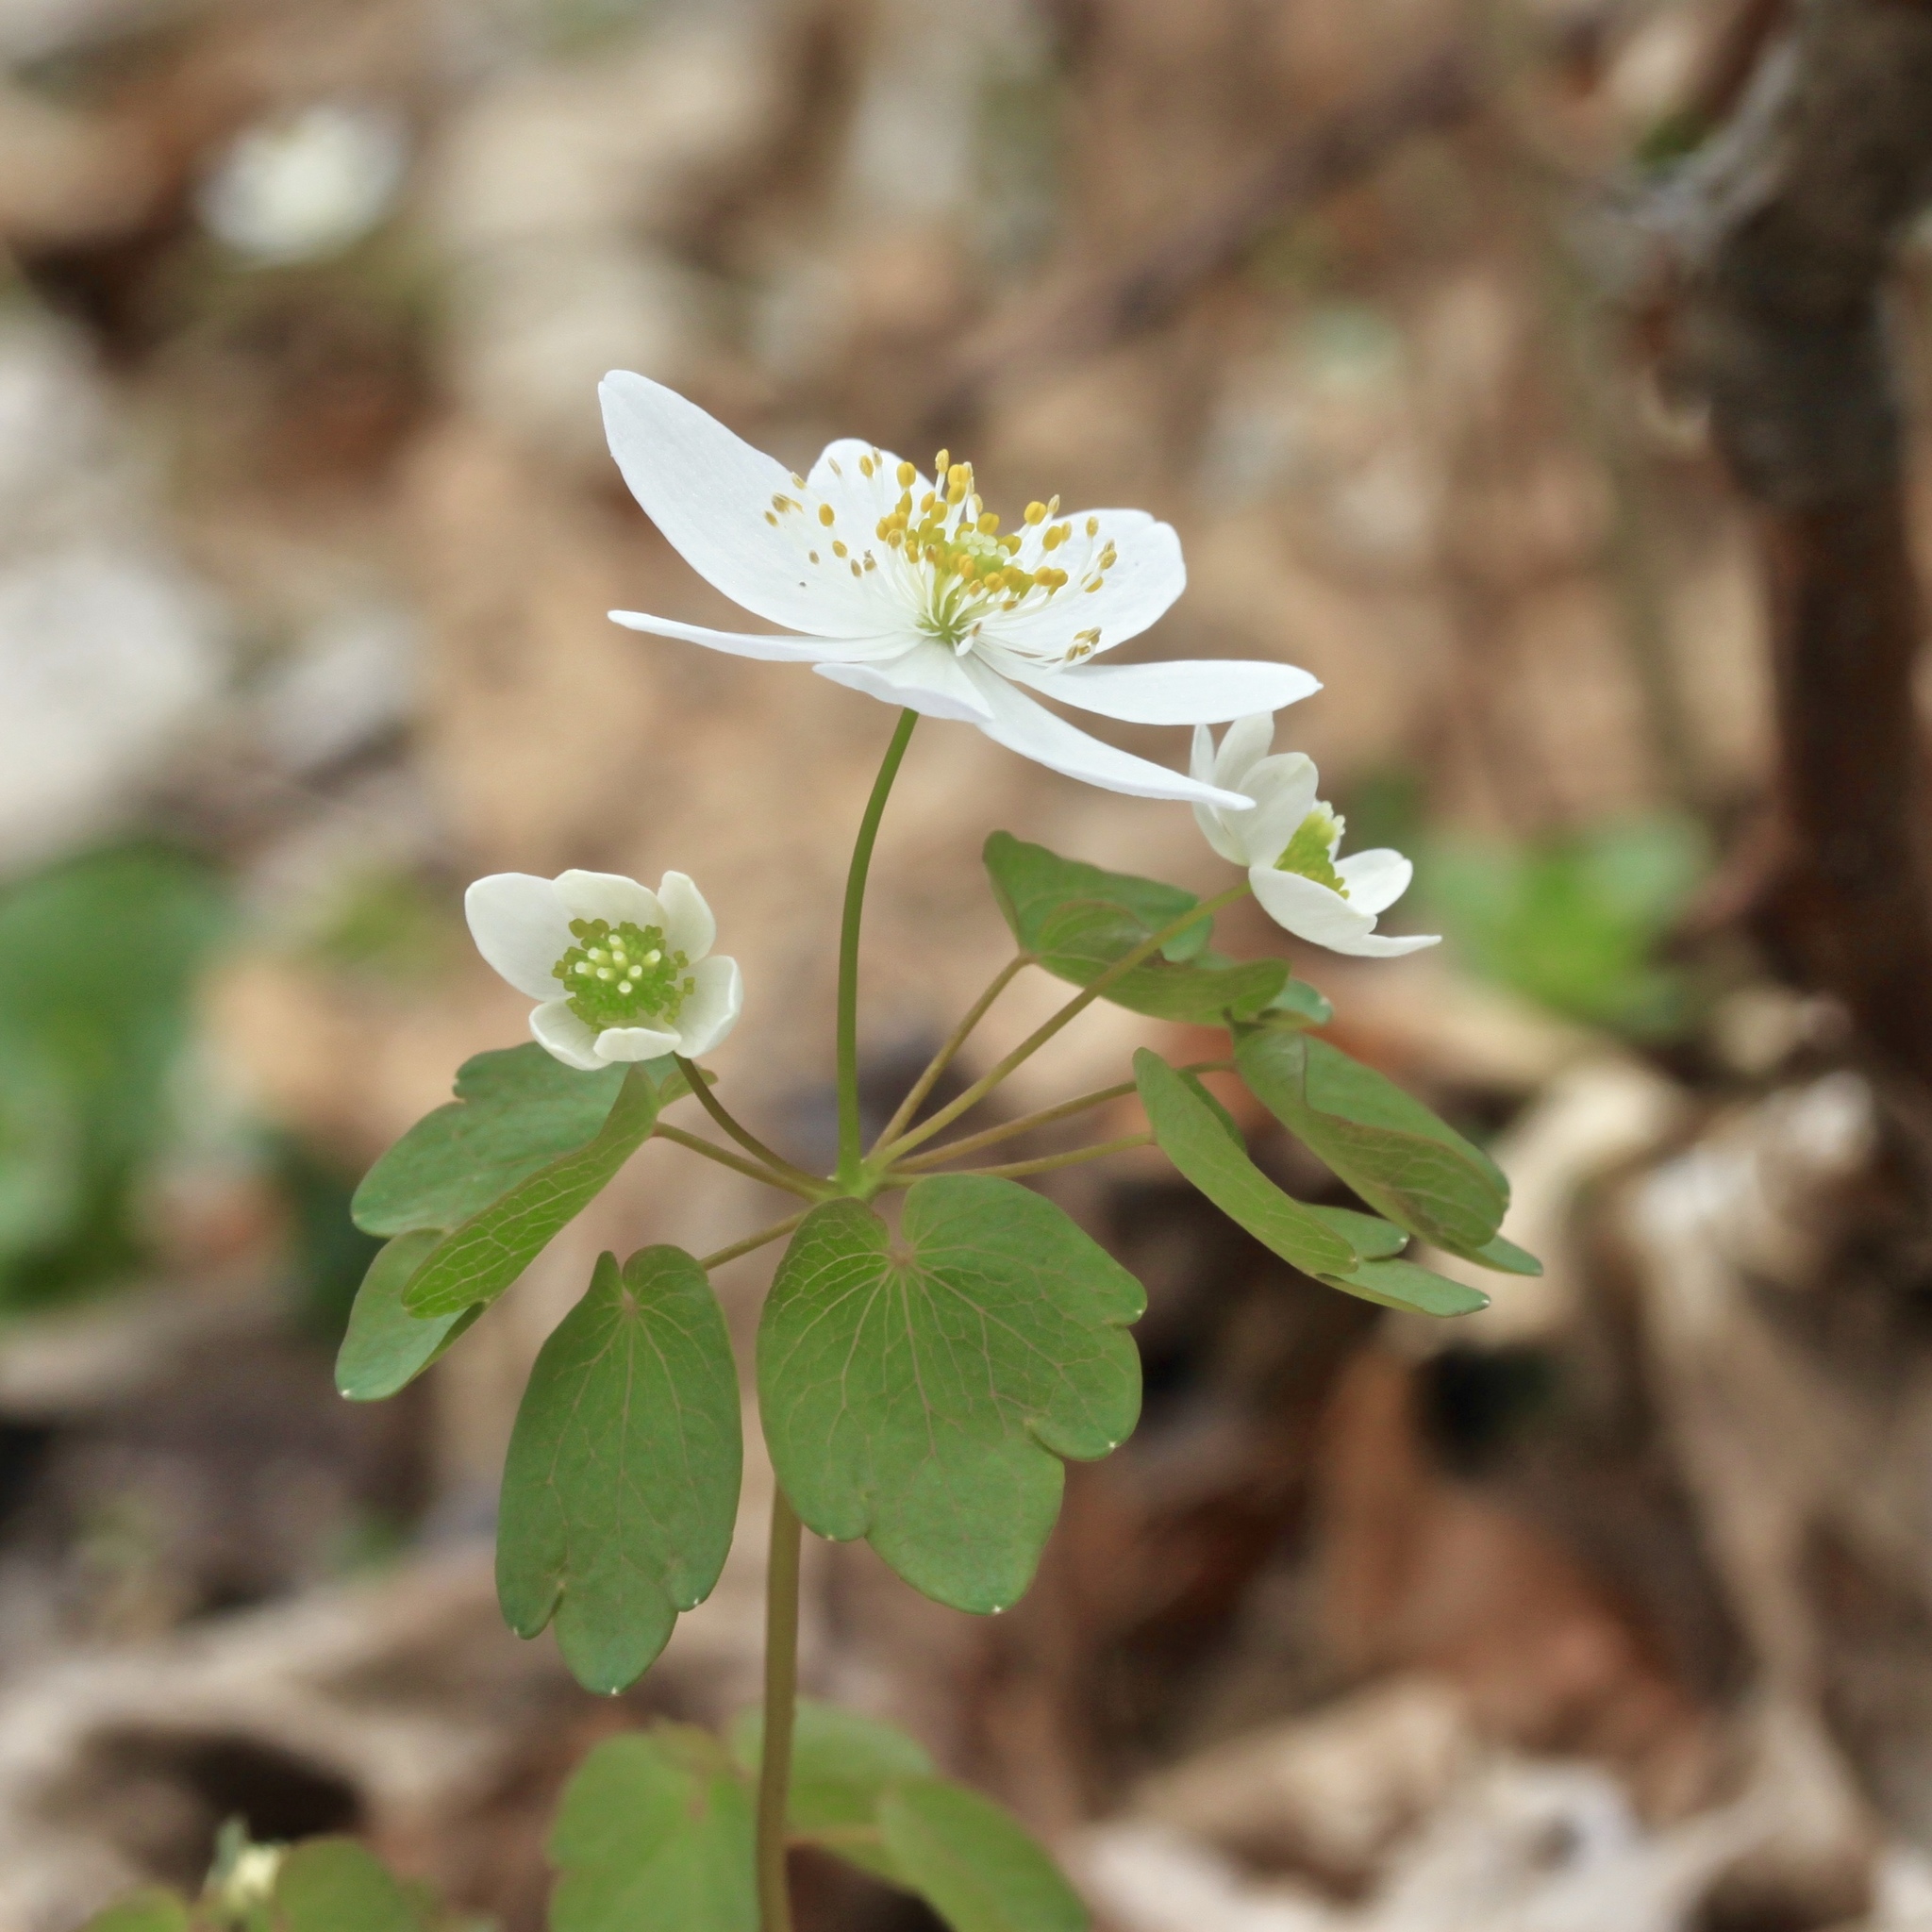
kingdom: Plantae
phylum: Tracheophyta
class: Magnoliopsida
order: Ranunculales
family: Ranunculaceae
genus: Thalictrum
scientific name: Thalictrum thalictroides
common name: Rue-anemone
